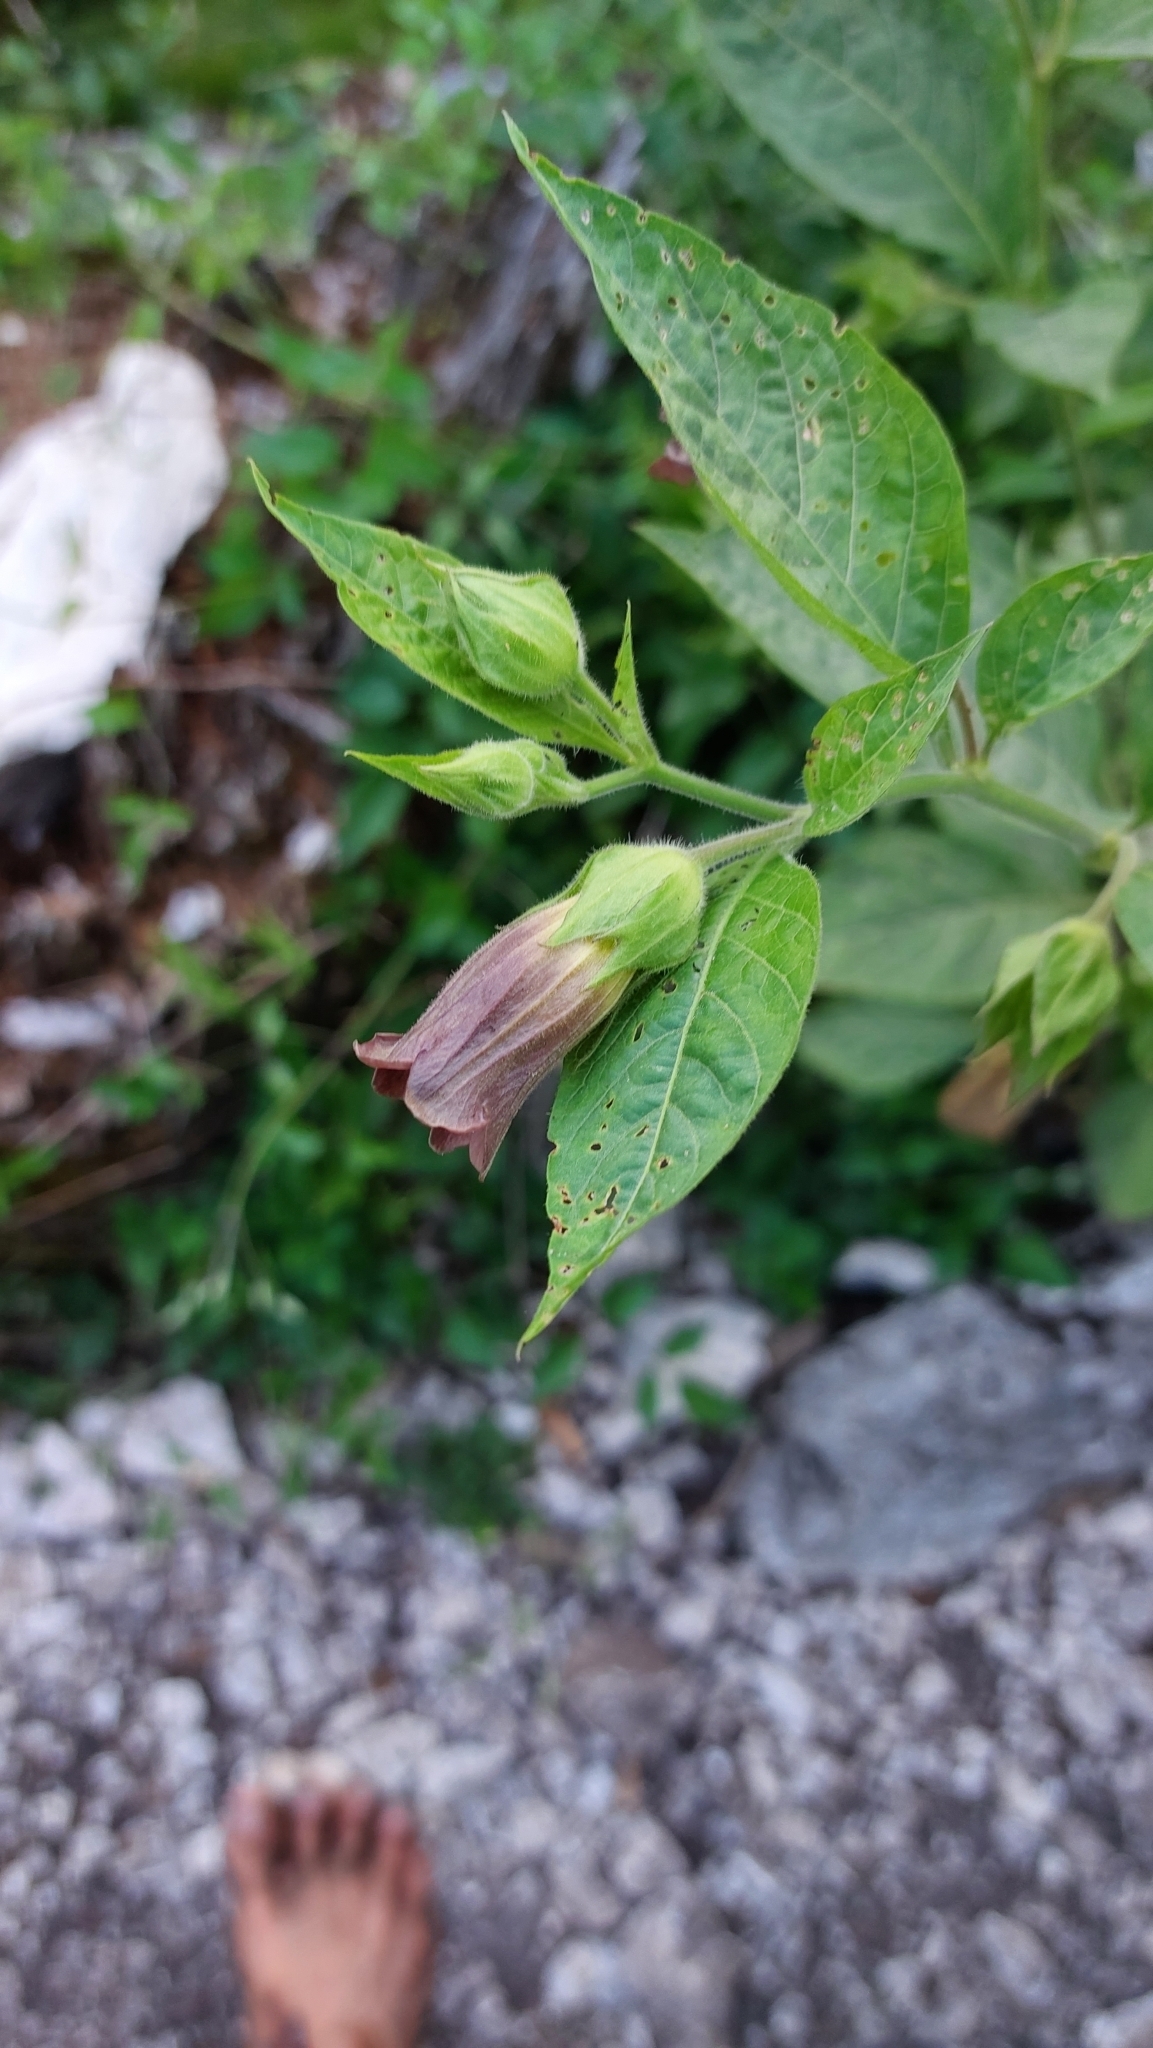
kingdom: Plantae
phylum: Tracheophyta
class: Magnoliopsida
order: Solanales
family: Solanaceae
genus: Atropa
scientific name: Atropa belladonna
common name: Deadly nightshade
